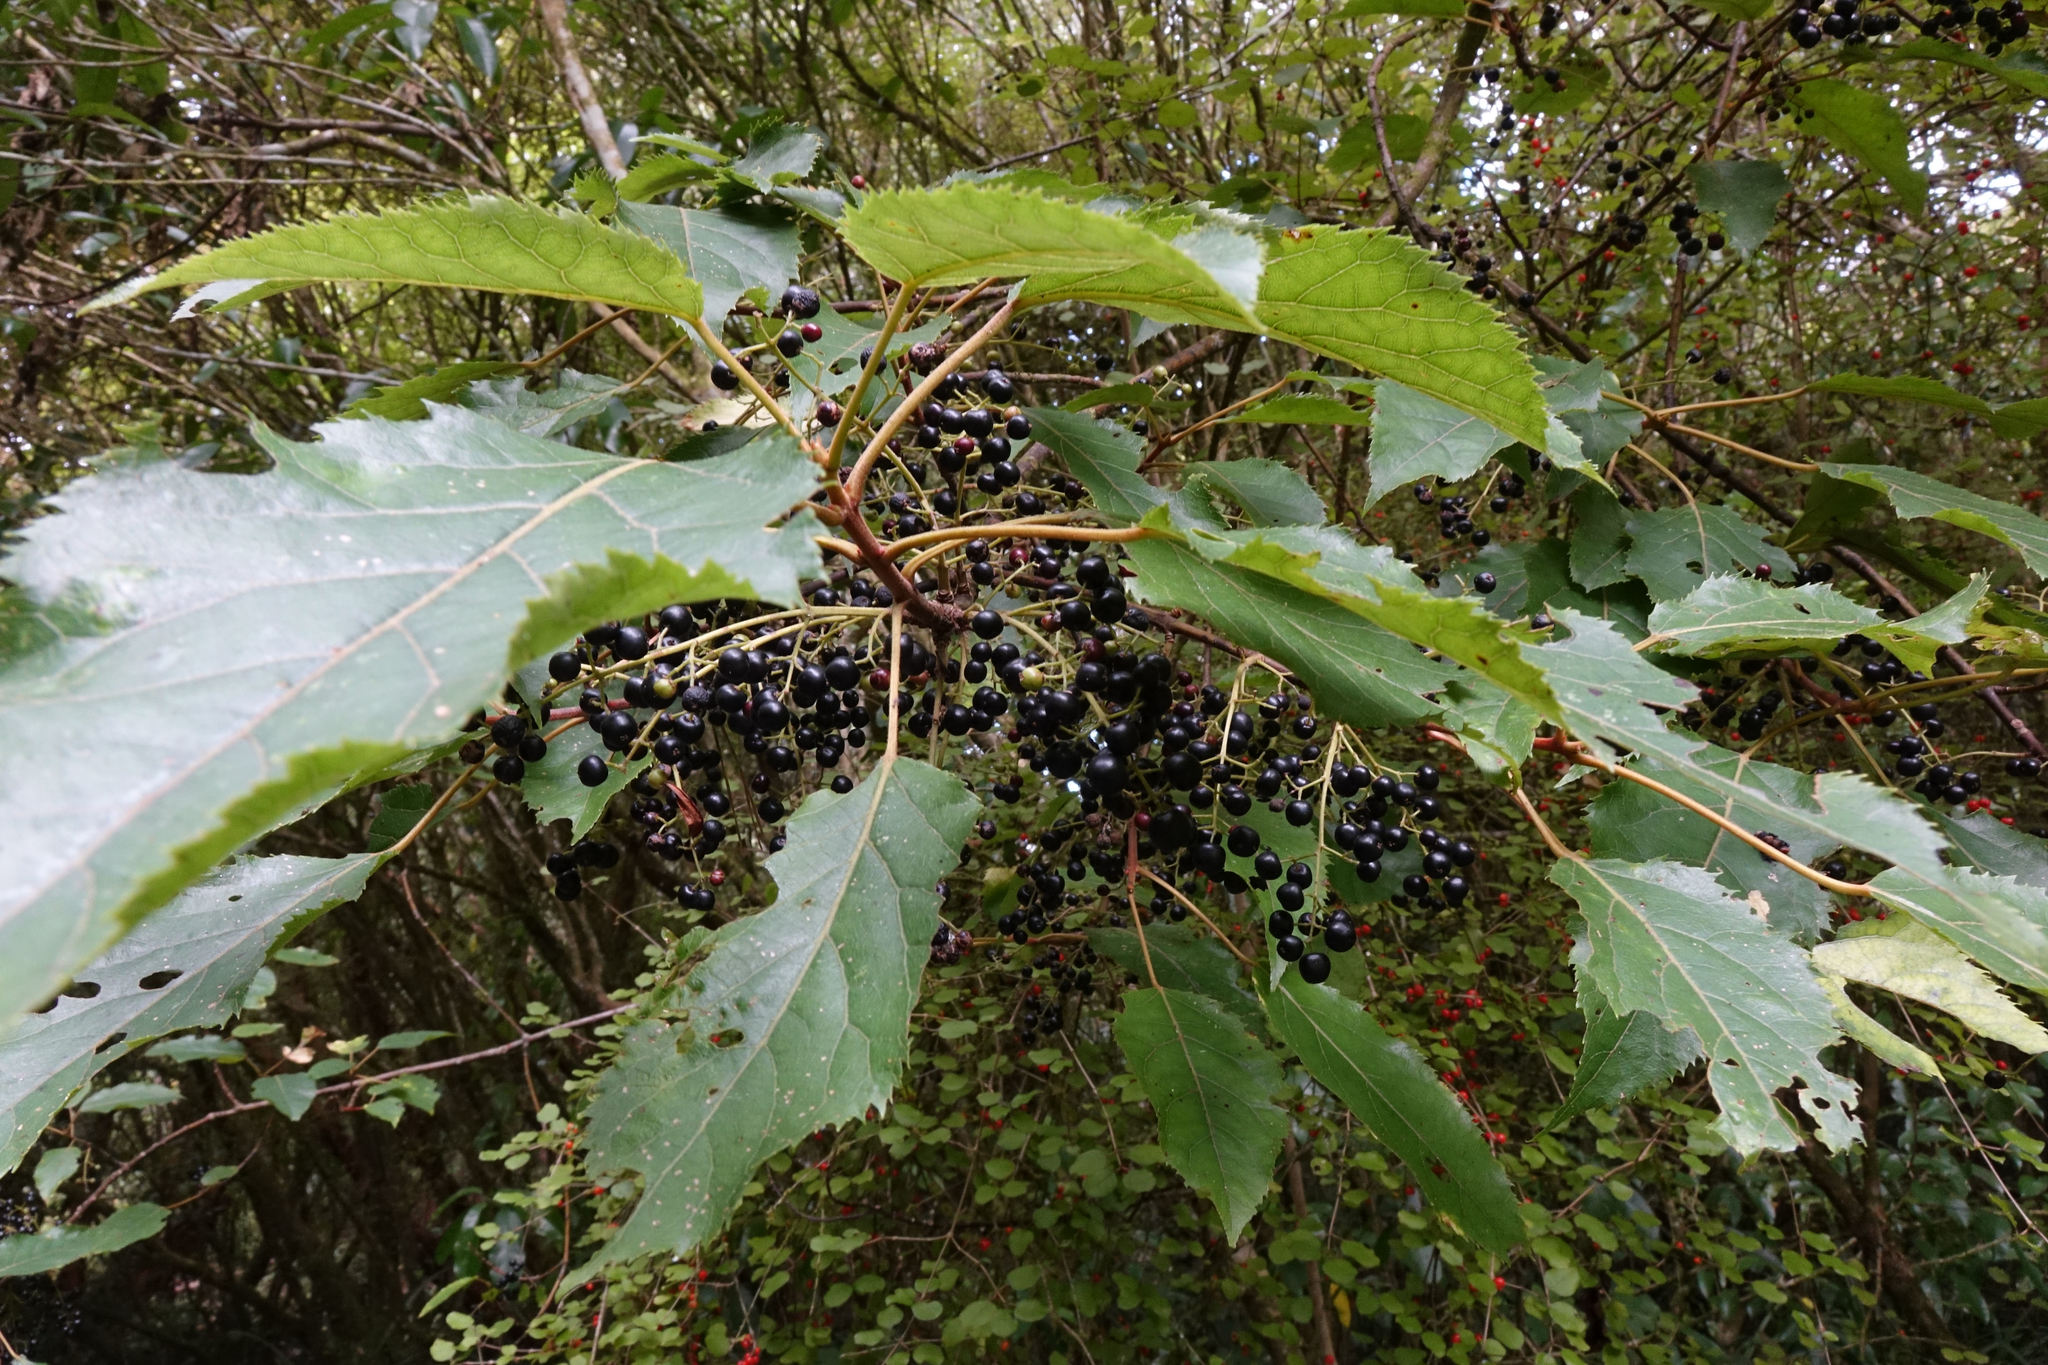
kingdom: Plantae
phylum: Tracheophyta
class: Magnoliopsida
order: Oxalidales
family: Elaeocarpaceae
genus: Aristotelia
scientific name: Aristotelia serrata
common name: New zealand wineberry
